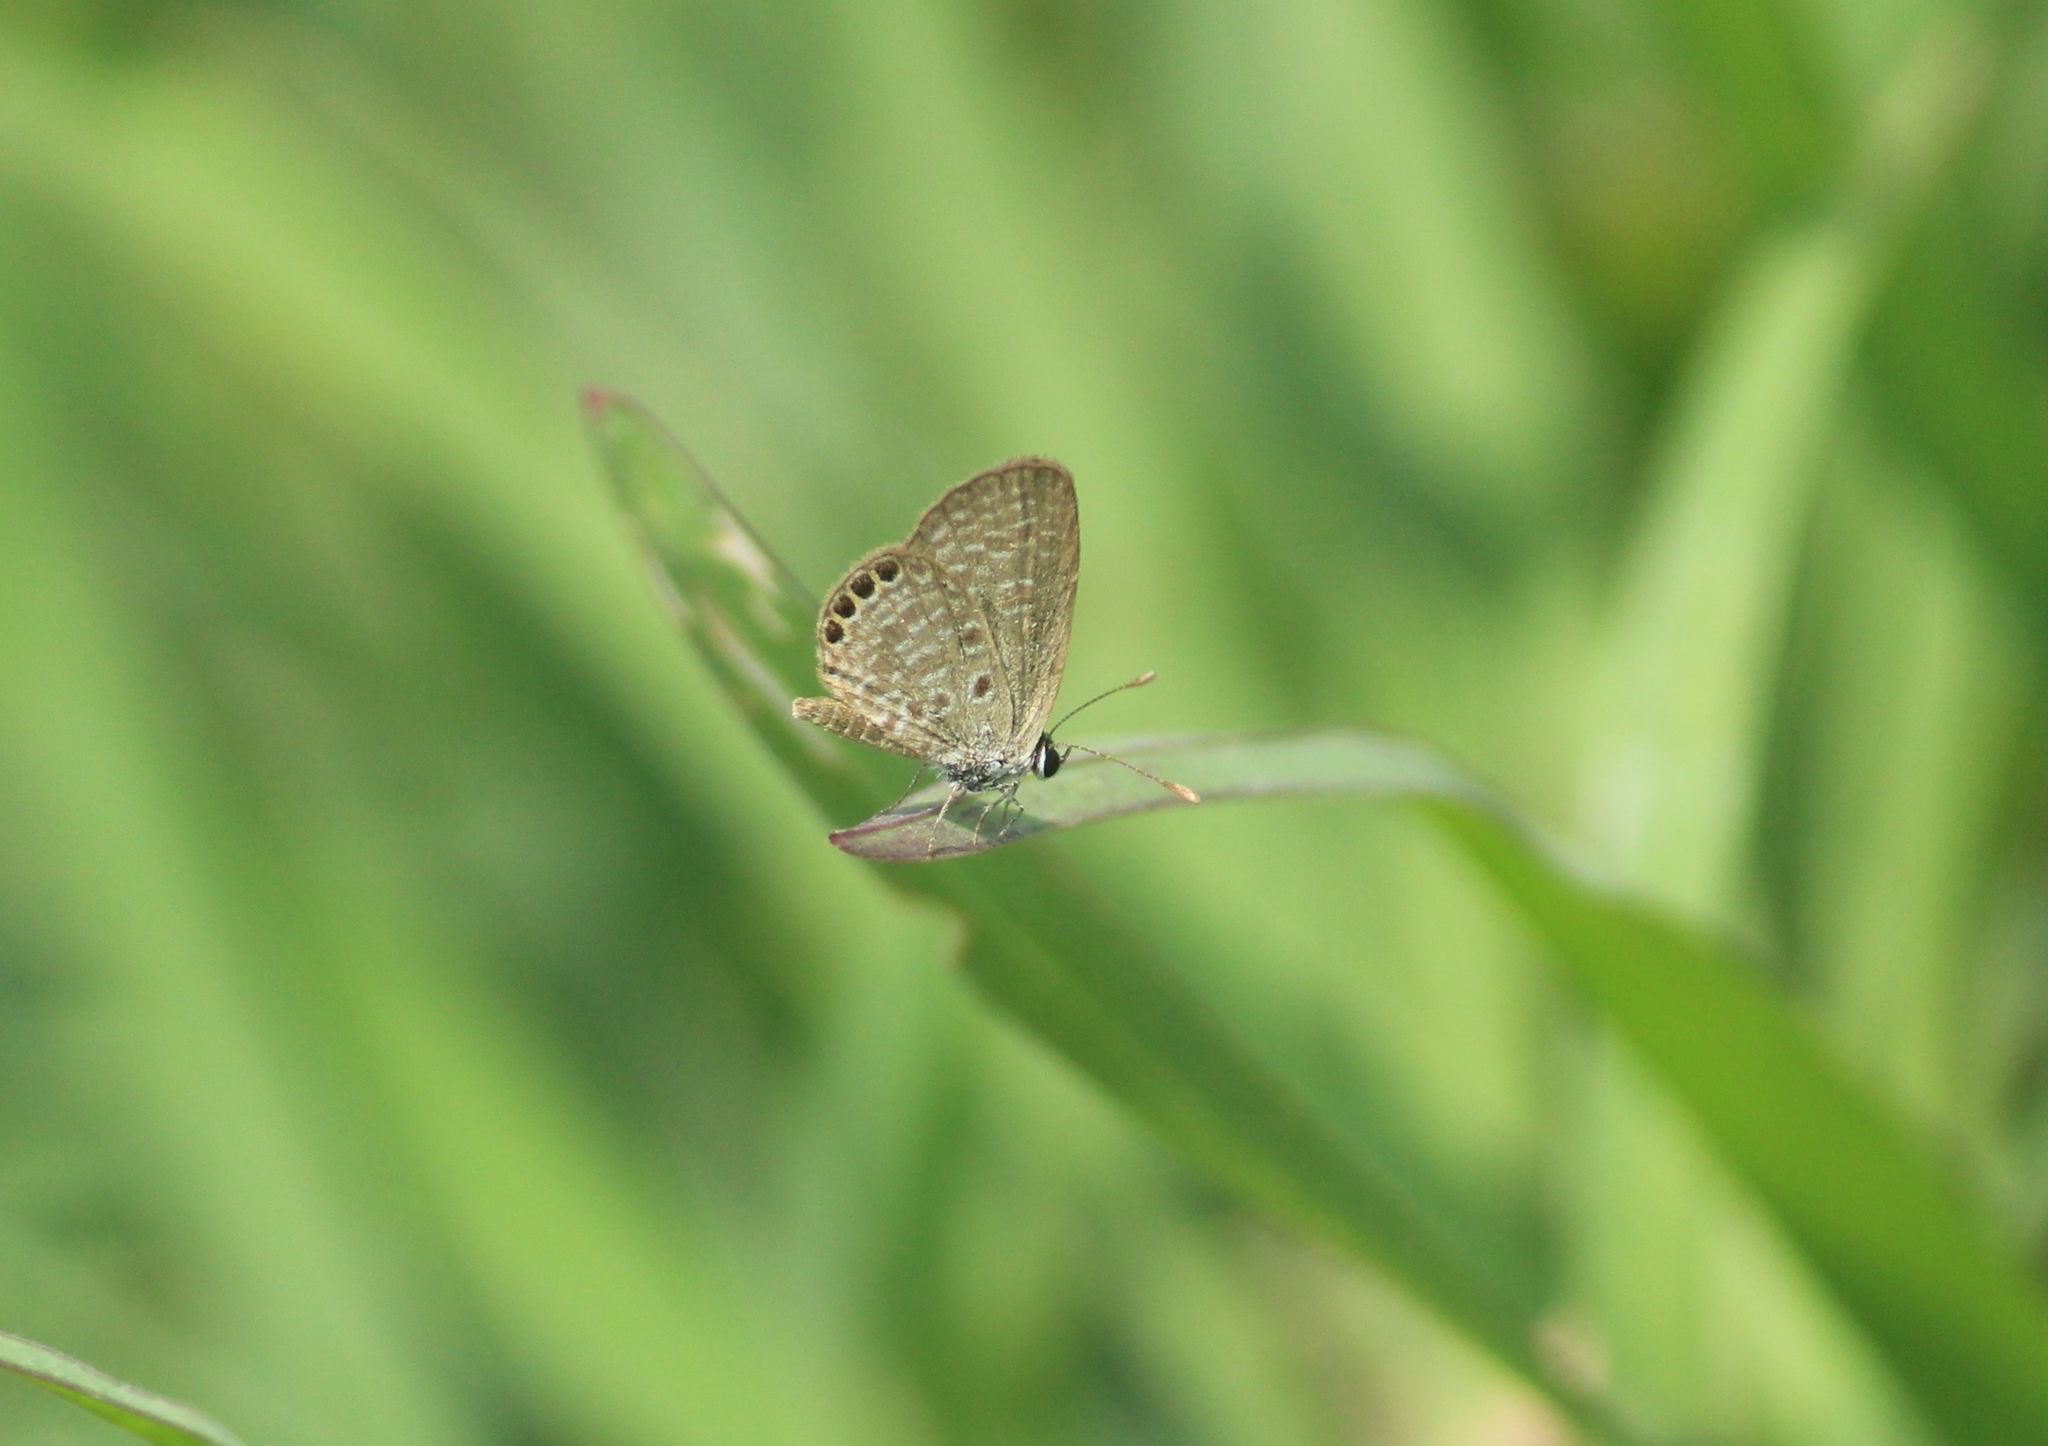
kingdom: Animalia
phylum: Arthropoda
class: Insecta
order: Lepidoptera
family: Lycaenidae
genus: Freyeria
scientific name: Freyeria putli
